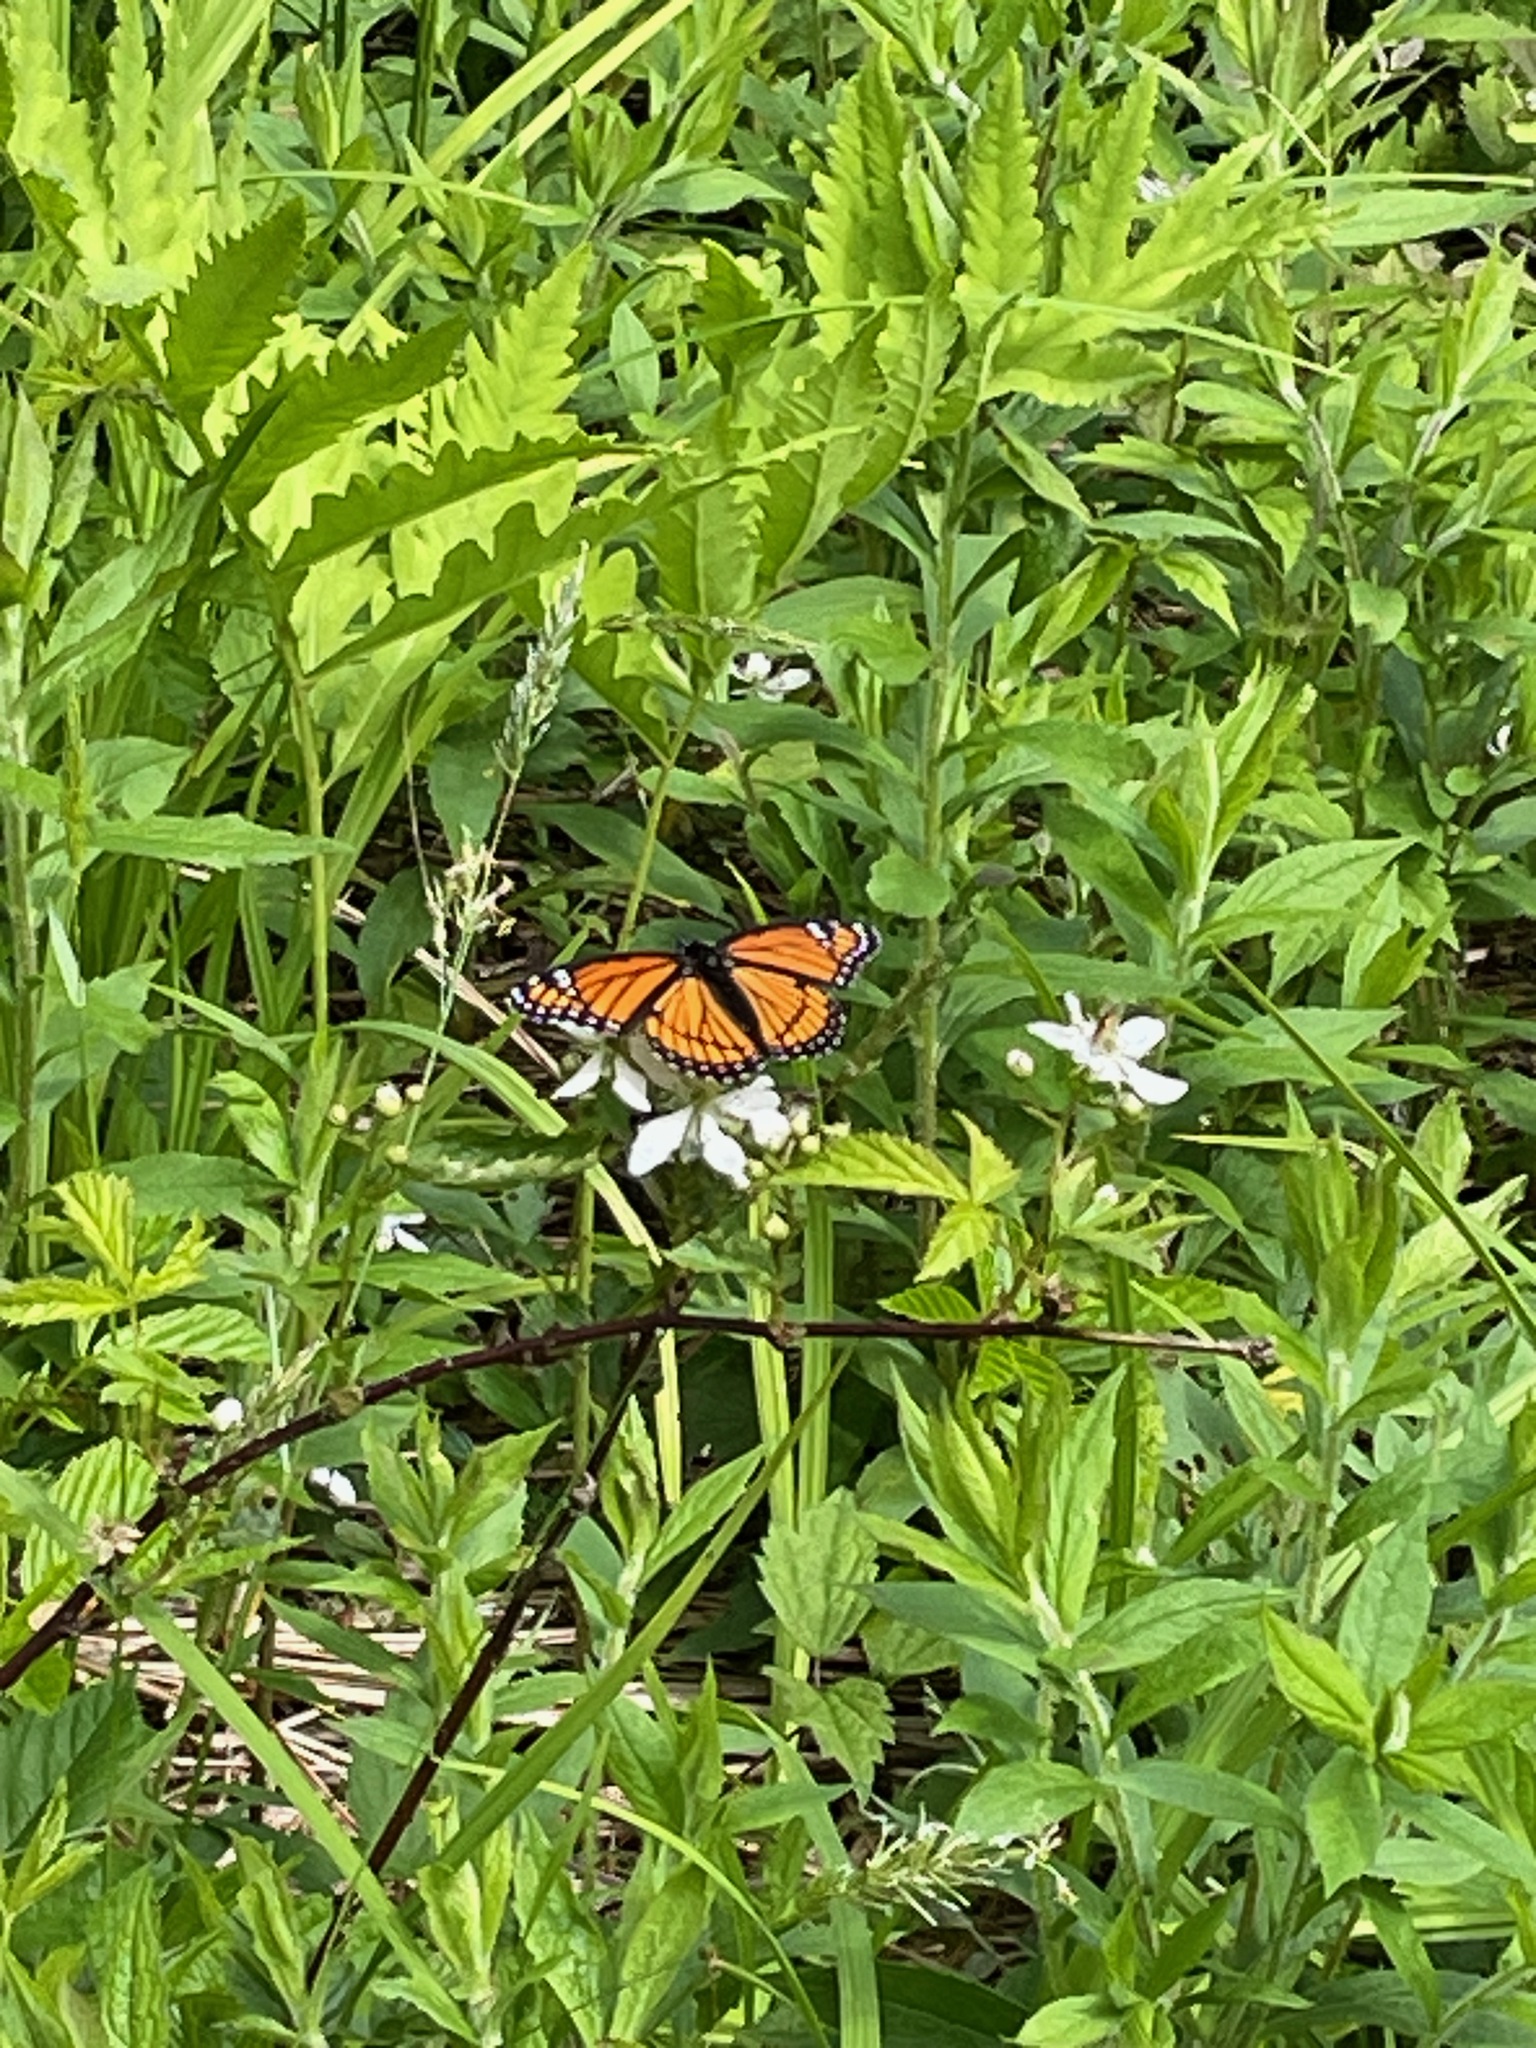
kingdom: Animalia
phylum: Arthropoda
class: Insecta
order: Lepidoptera
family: Nymphalidae
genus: Limenitis
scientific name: Limenitis archippus
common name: Viceroy
